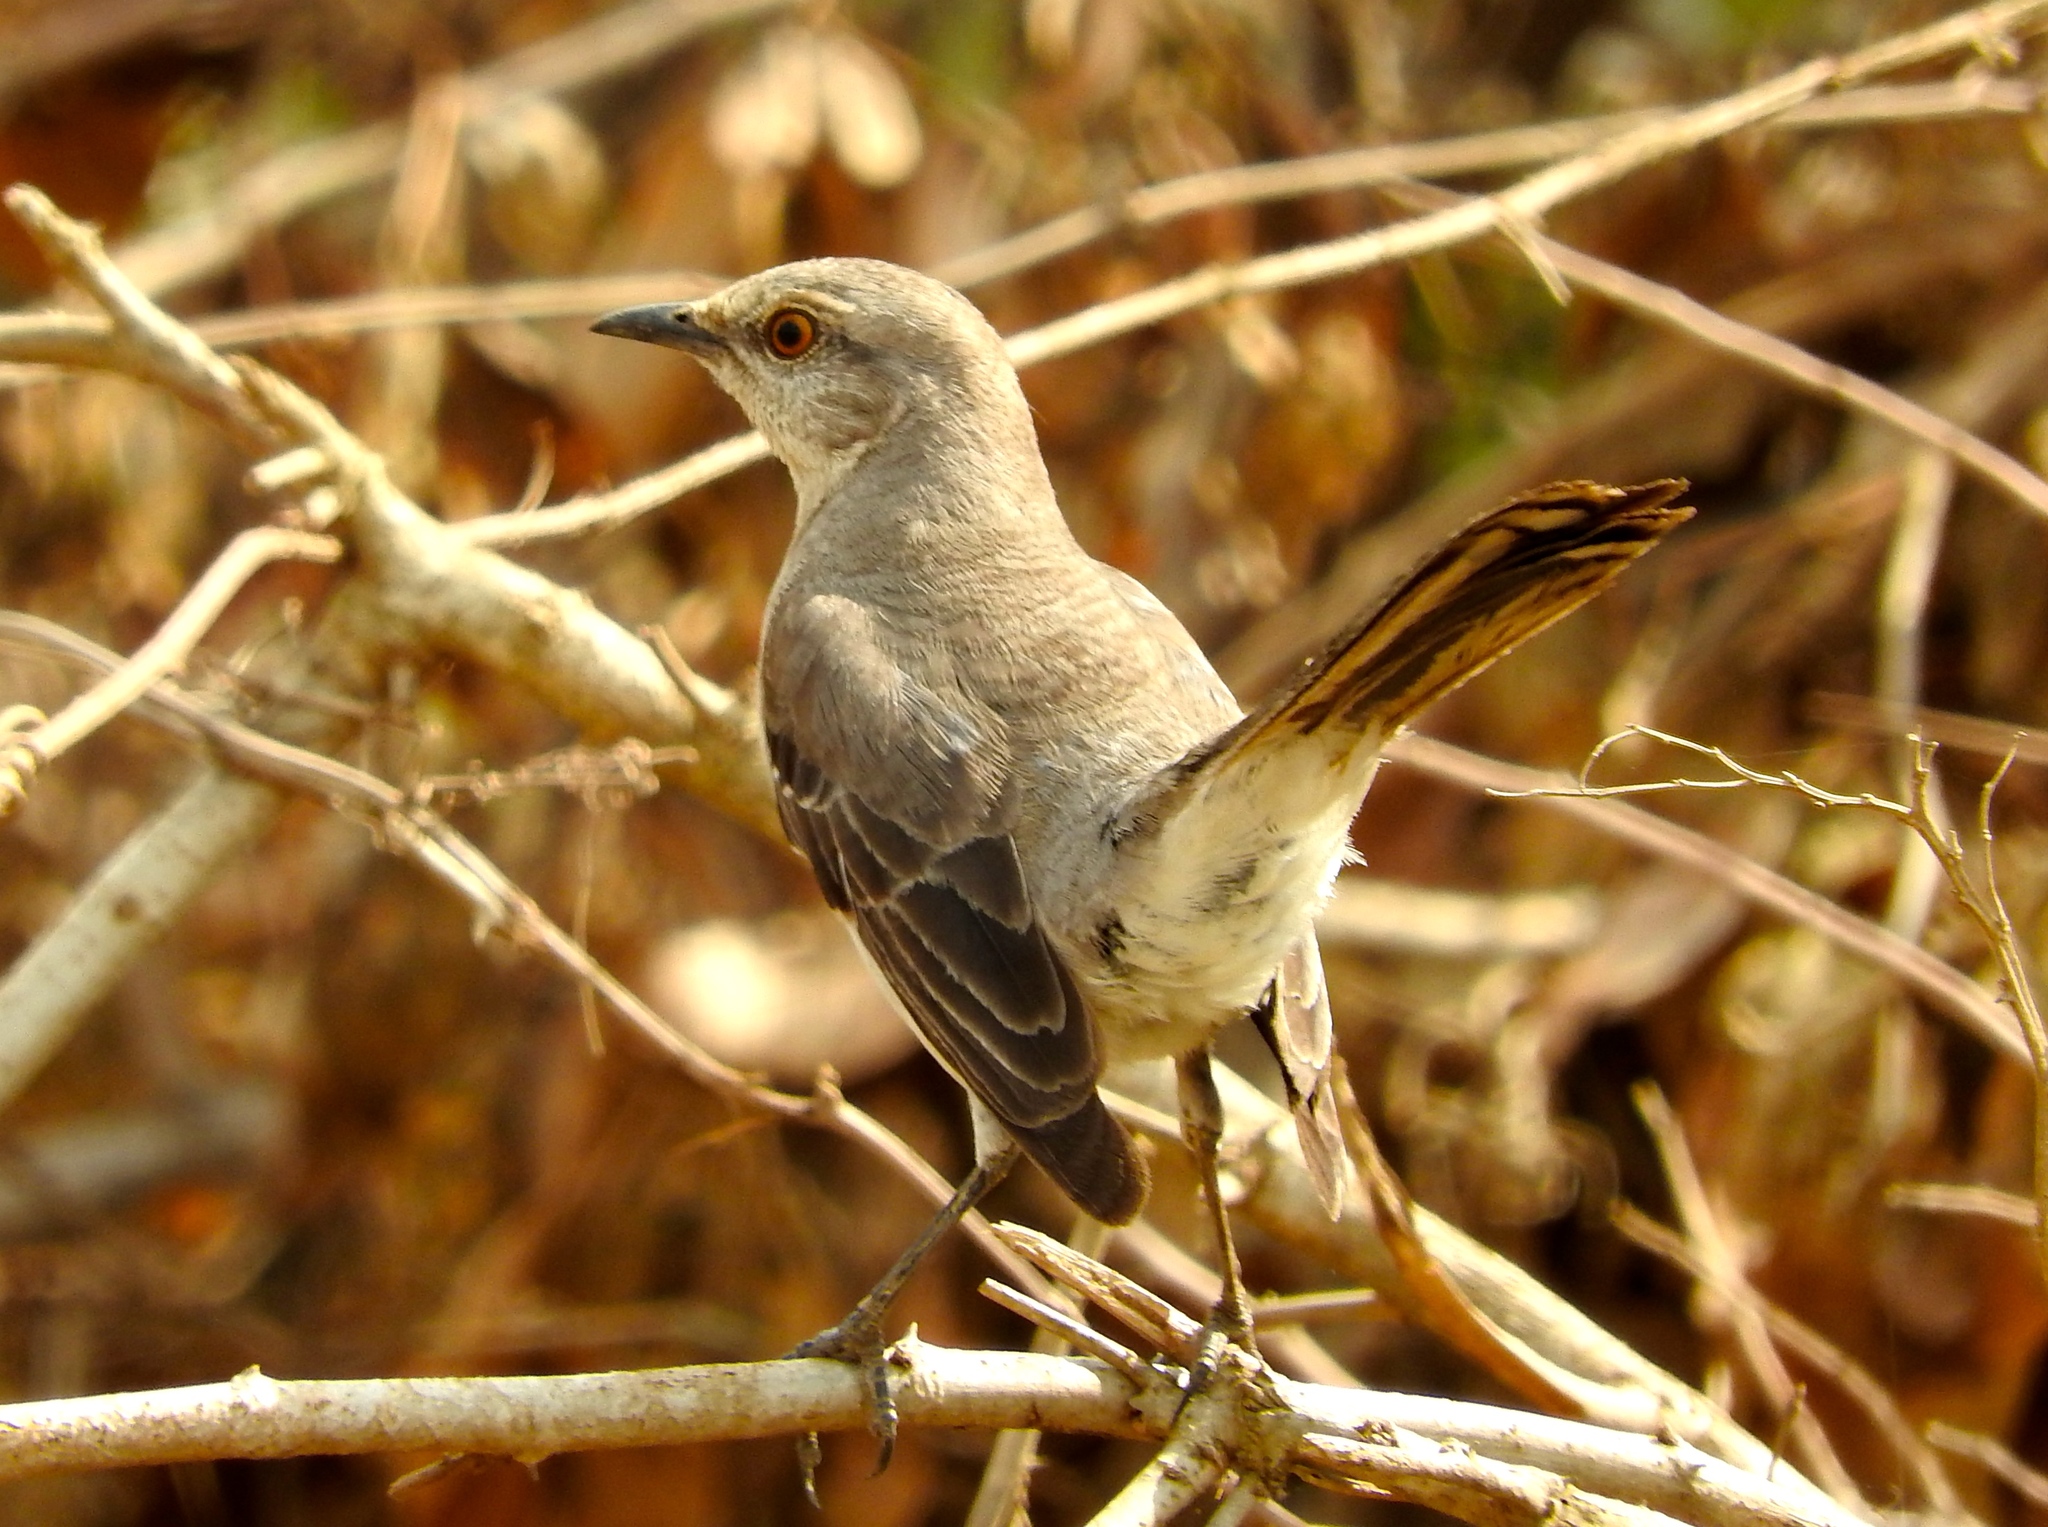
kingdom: Animalia
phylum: Chordata
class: Aves
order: Passeriformes
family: Mimidae
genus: Mimus
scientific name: Mimus polyglottos
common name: Northern mockingbird
